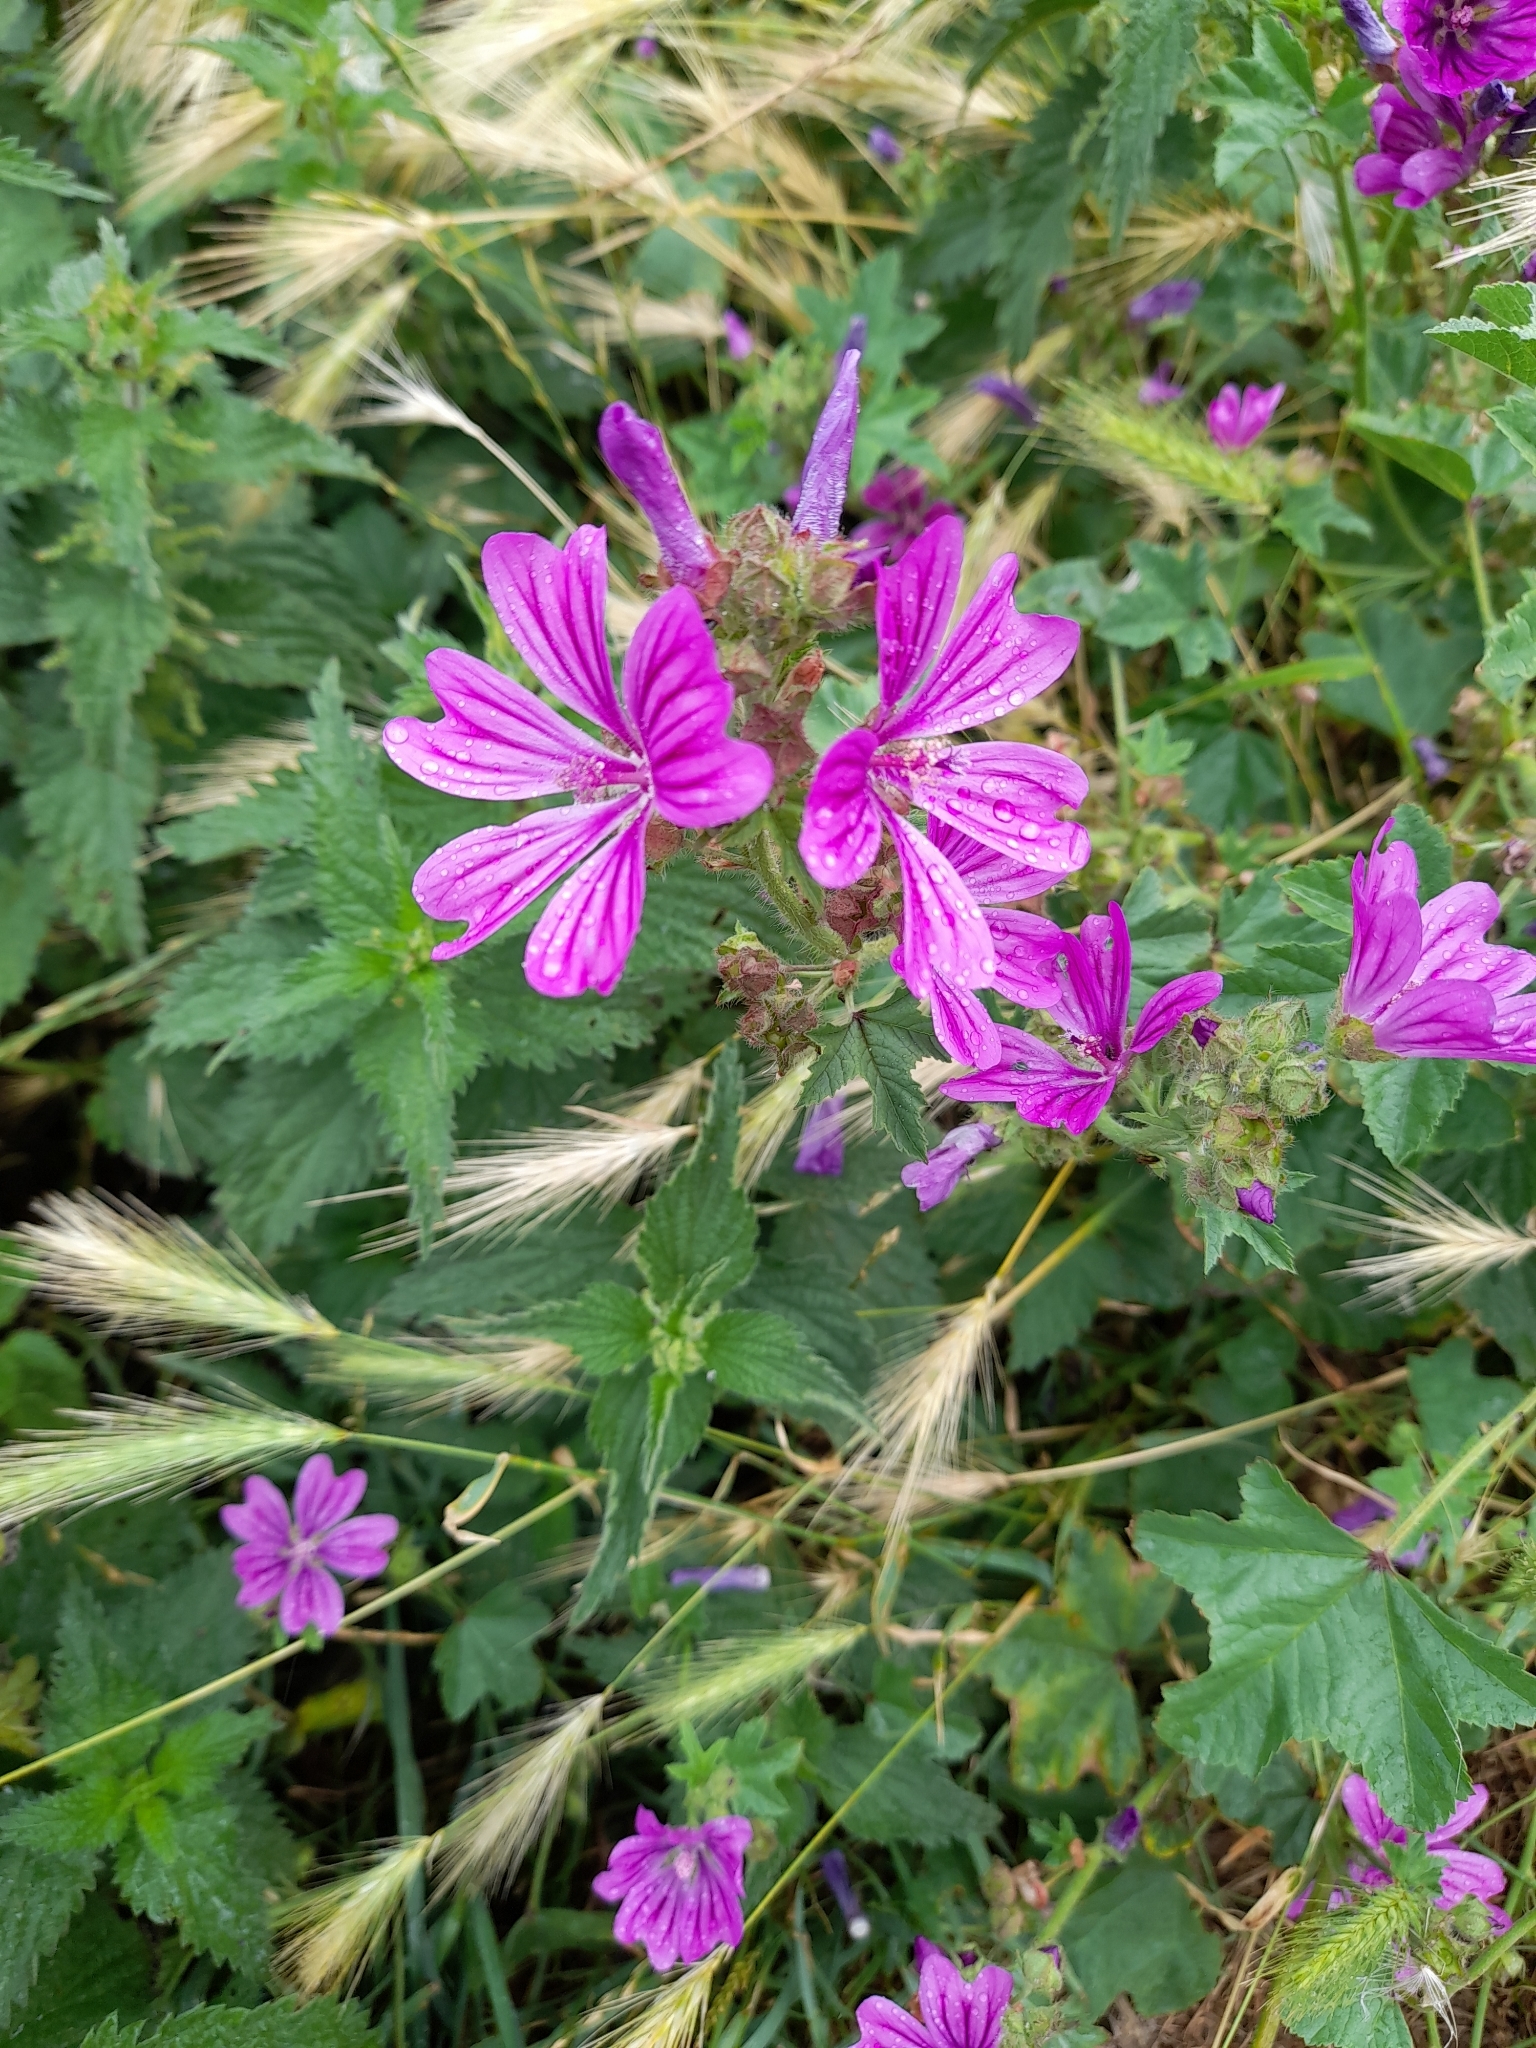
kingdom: Plantae
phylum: Tracheophyta
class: Magnoliopsida
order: Malvales
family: Malvaceae
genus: Malva
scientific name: Malva sylvestris
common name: Common mallow
